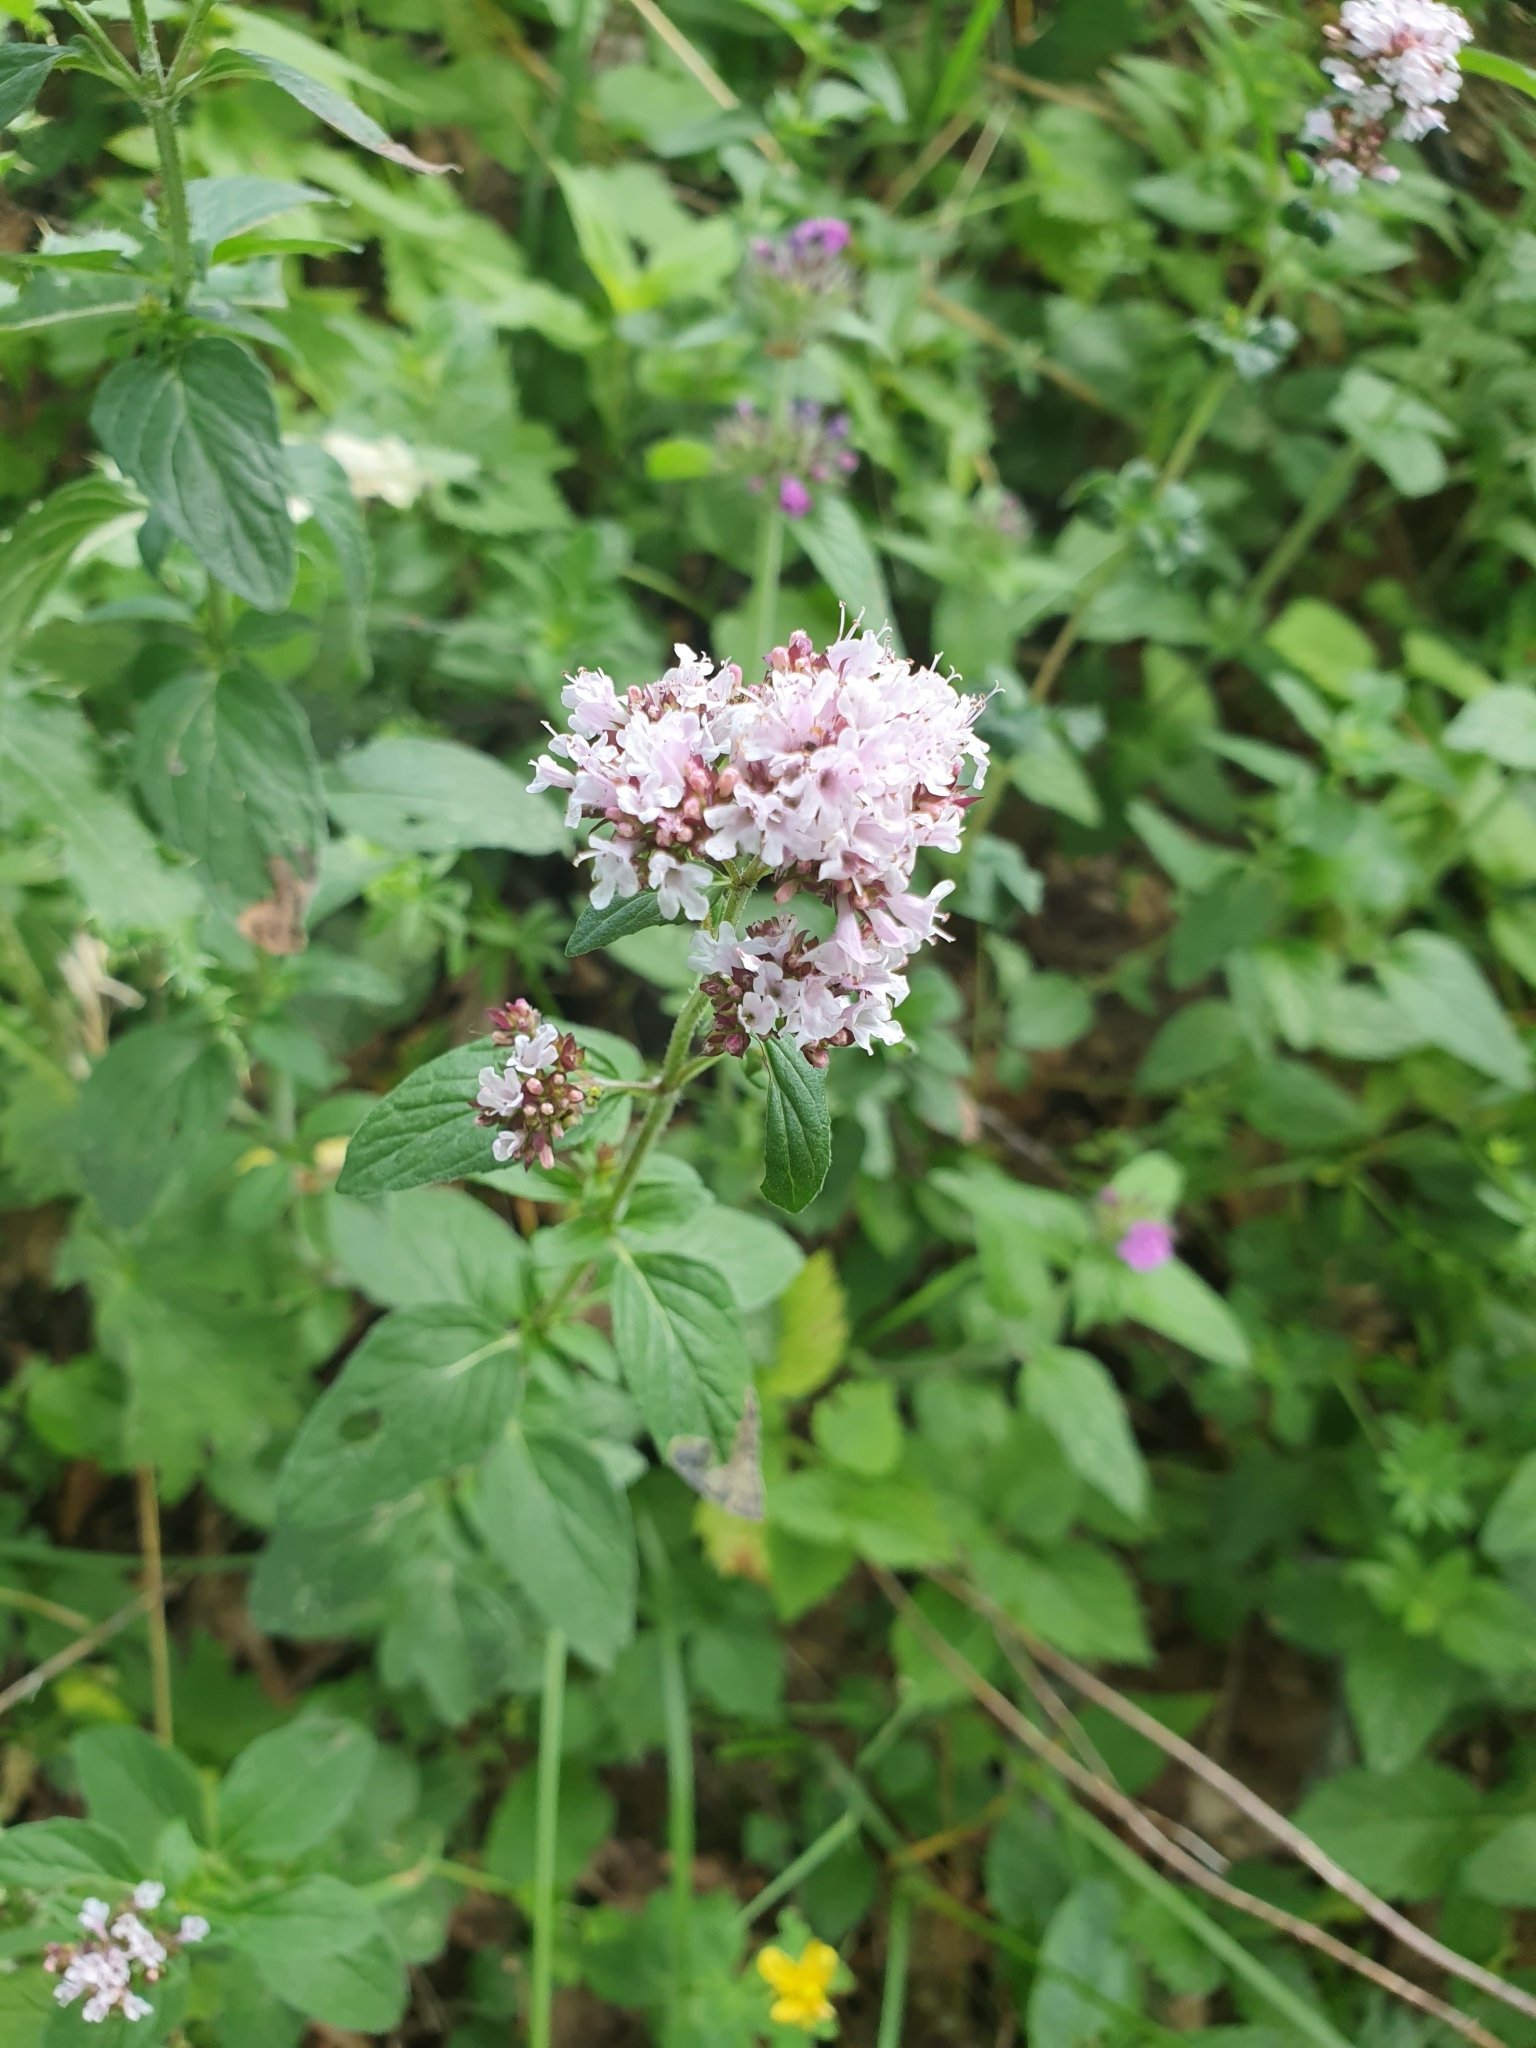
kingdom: Plantae
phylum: Tracheophyta
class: Magnoliopsida
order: Lamiales
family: Lamiaceae
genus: Origanum
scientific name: Origanum vulgare
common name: Wild marjoram
